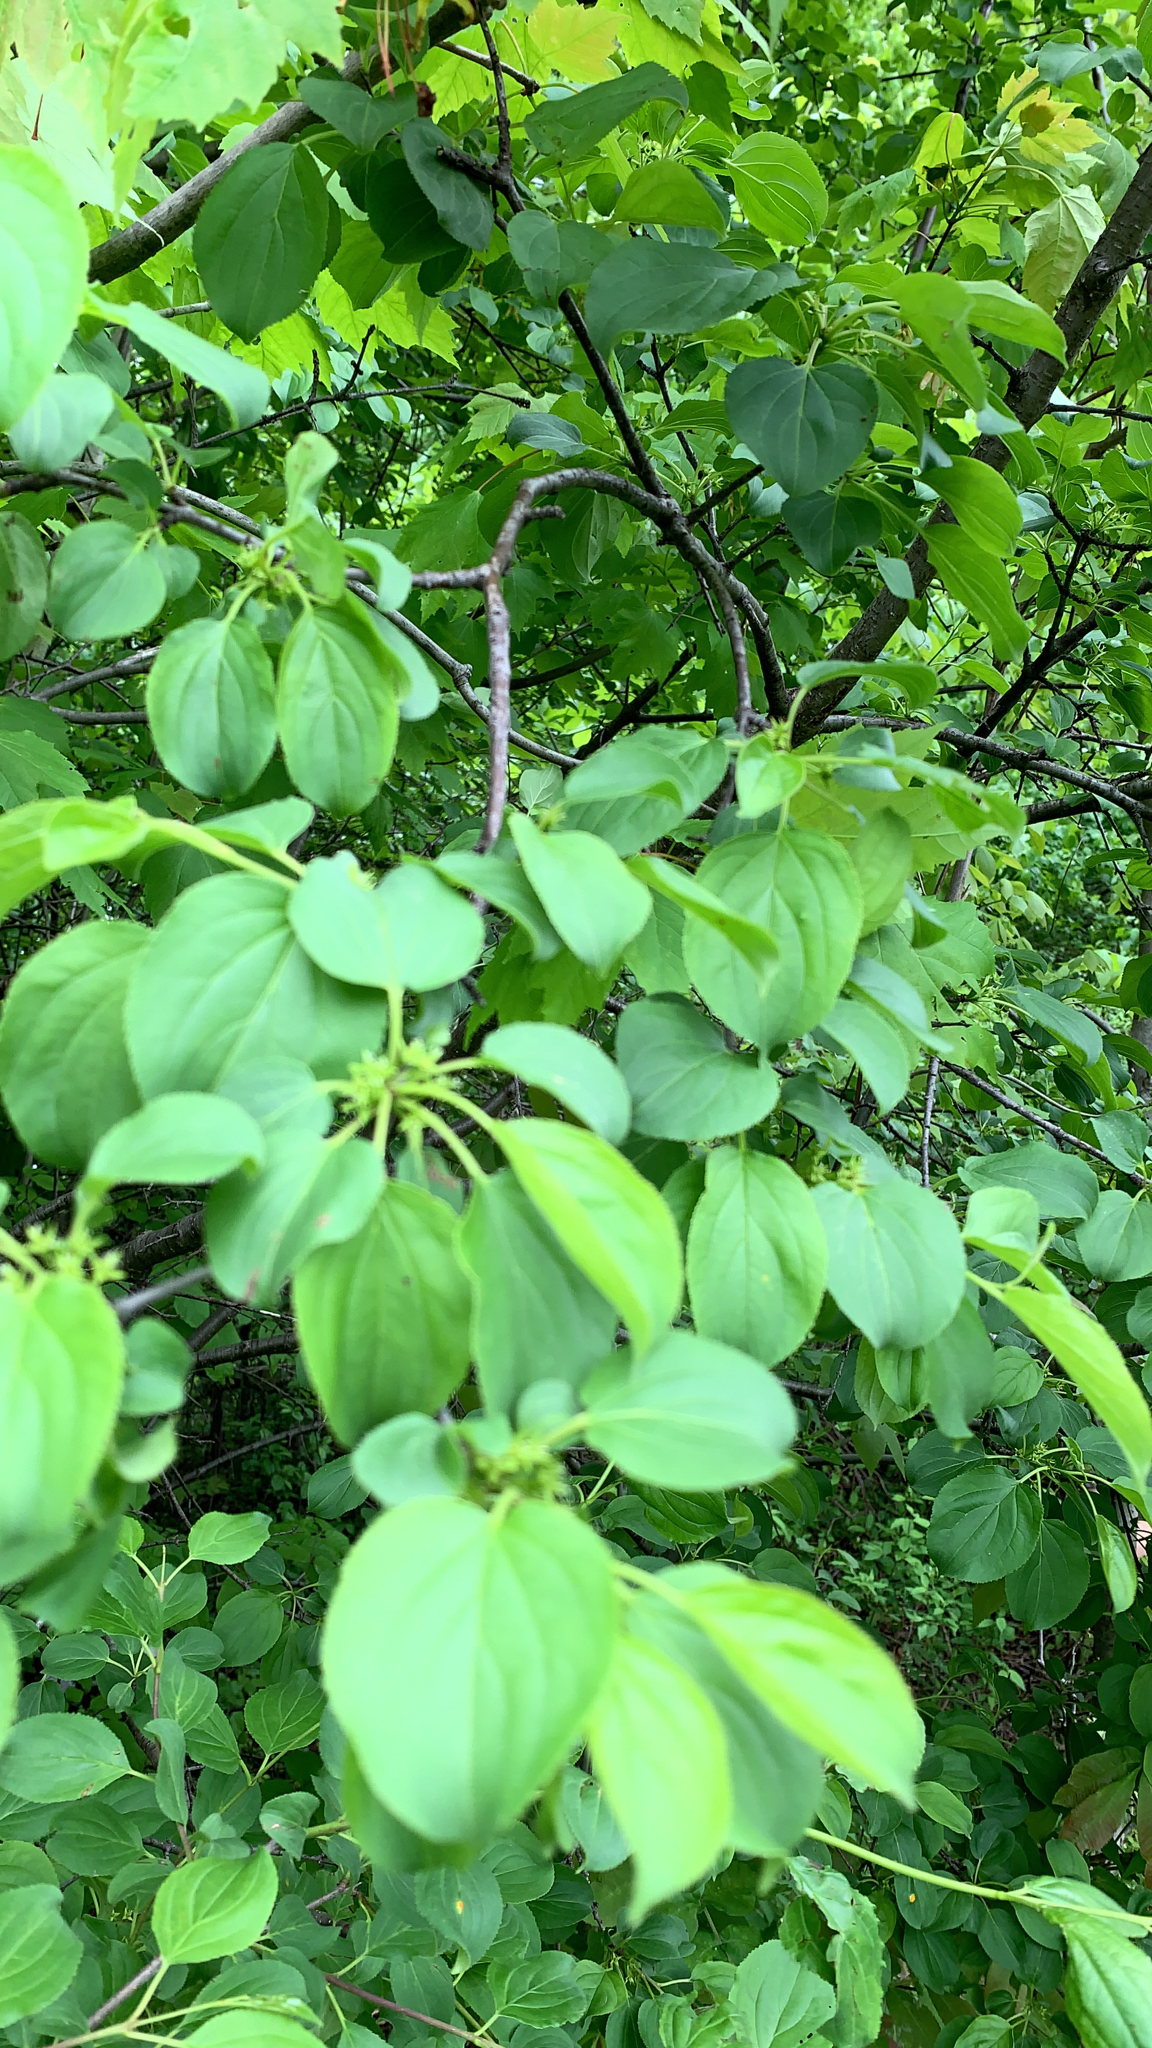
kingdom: Plantae
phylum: Tracheophyta
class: Magnoliopsida
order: Rosales
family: Rhamnaceae
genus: Rhamnus
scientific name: Rhamnus cathartica
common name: Common buckthorn
